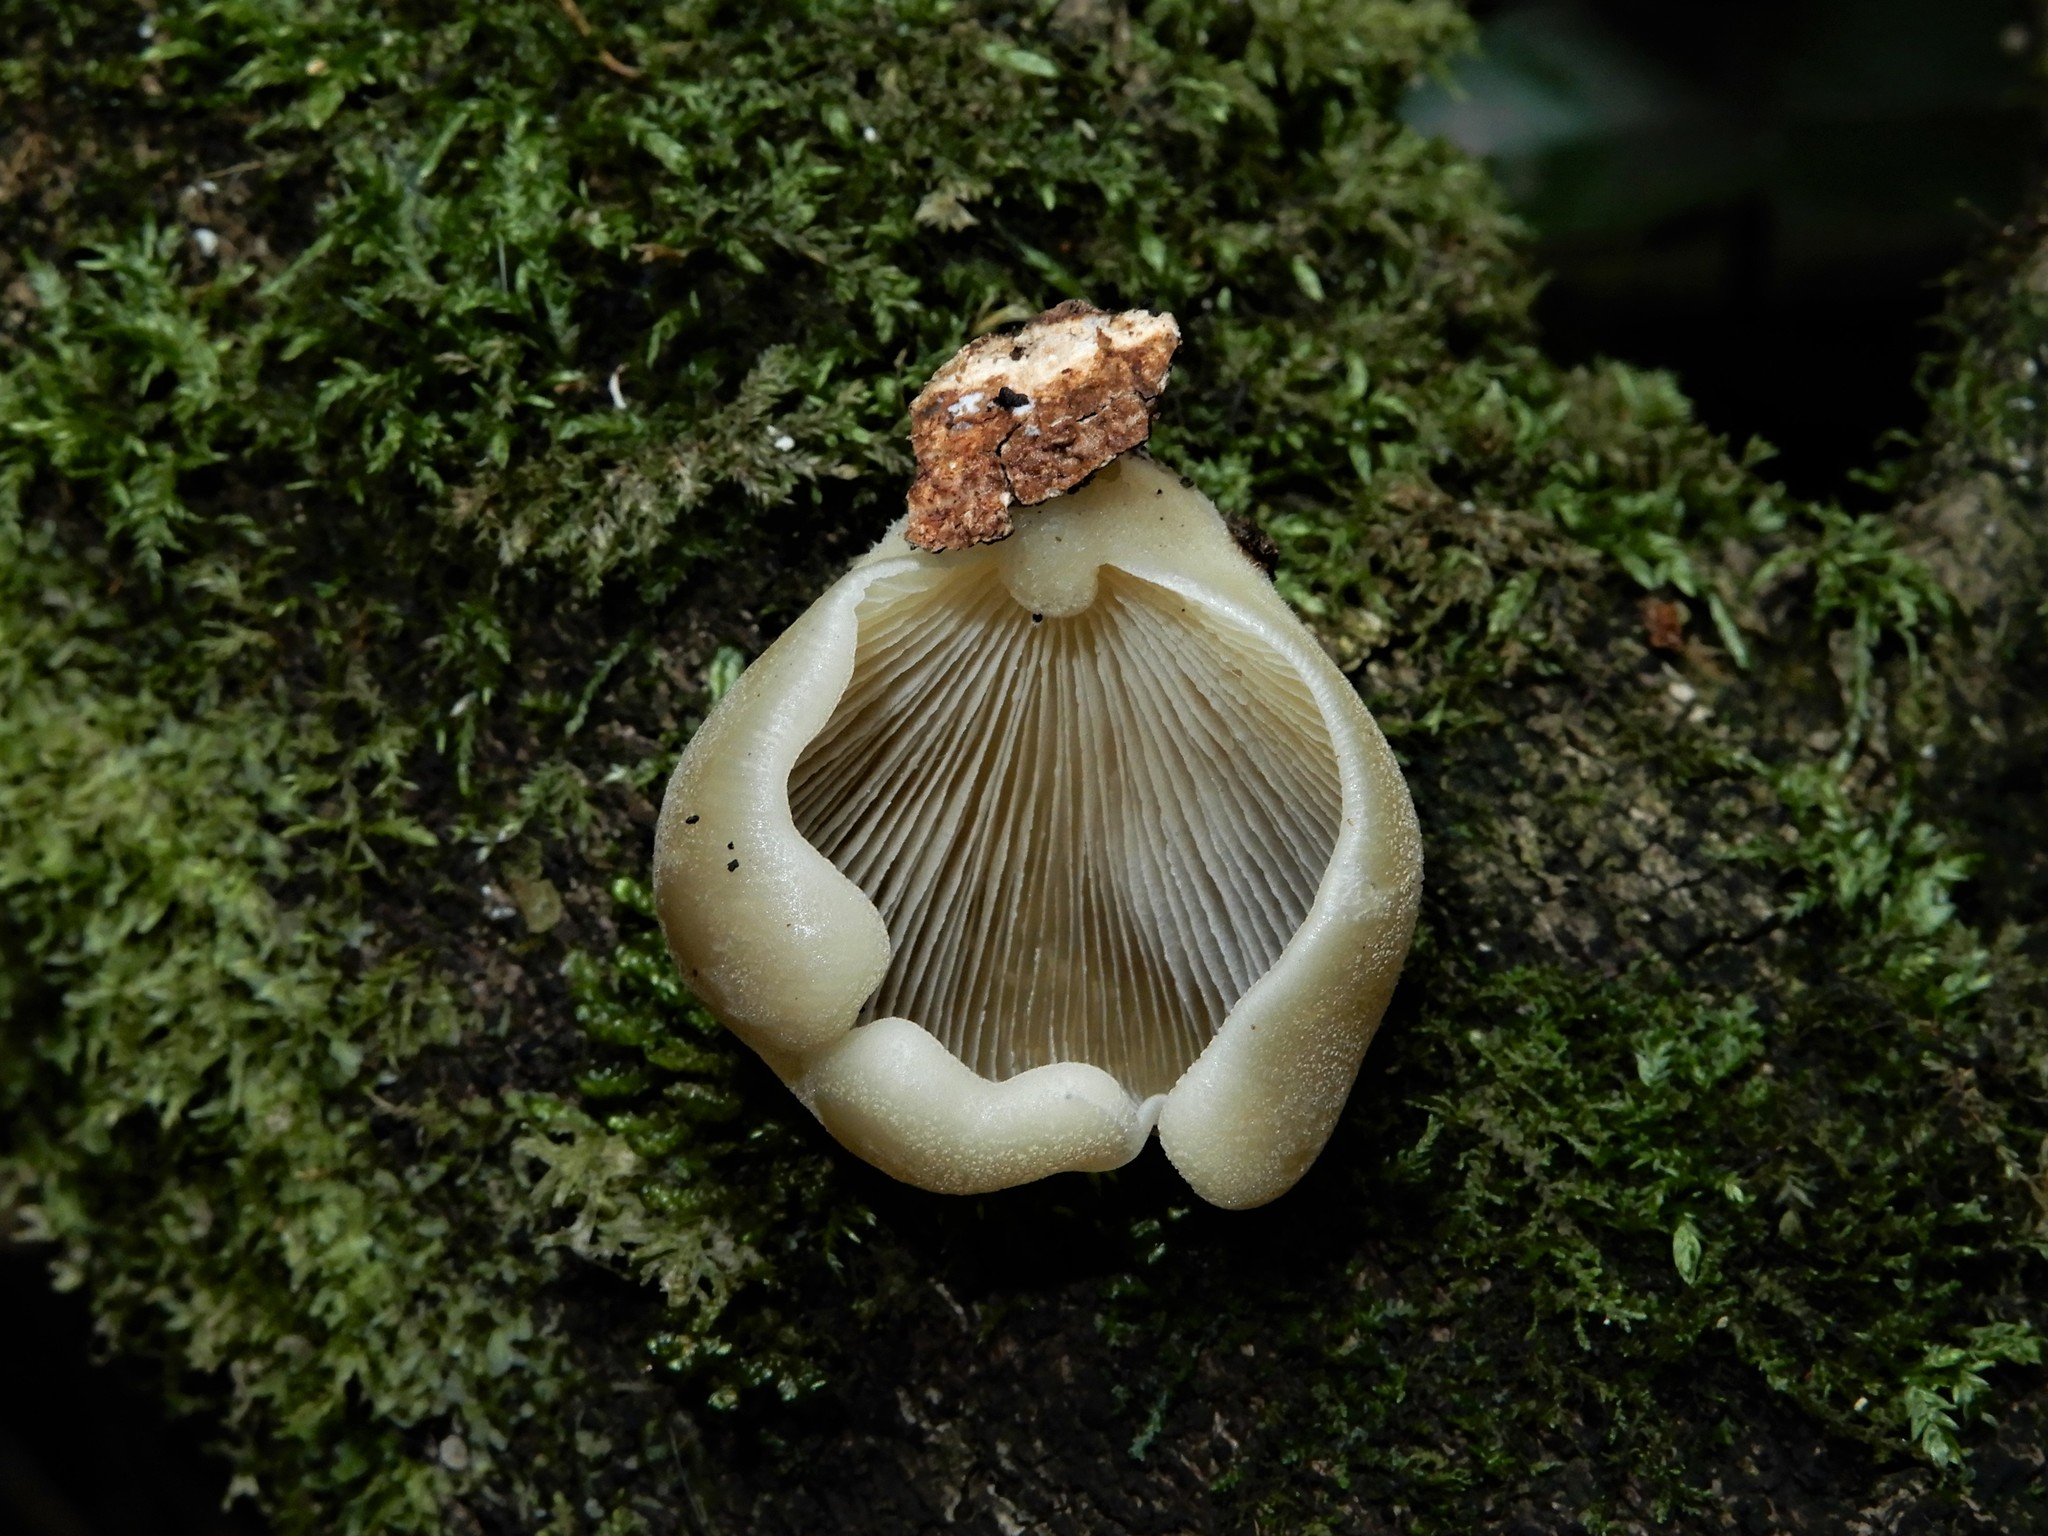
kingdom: Fungi
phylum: Basidiomycota
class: Agaricomycetes
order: Agaricales
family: Tricholomataceae
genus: Conchomyces
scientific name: Conchomyces bursiformis
